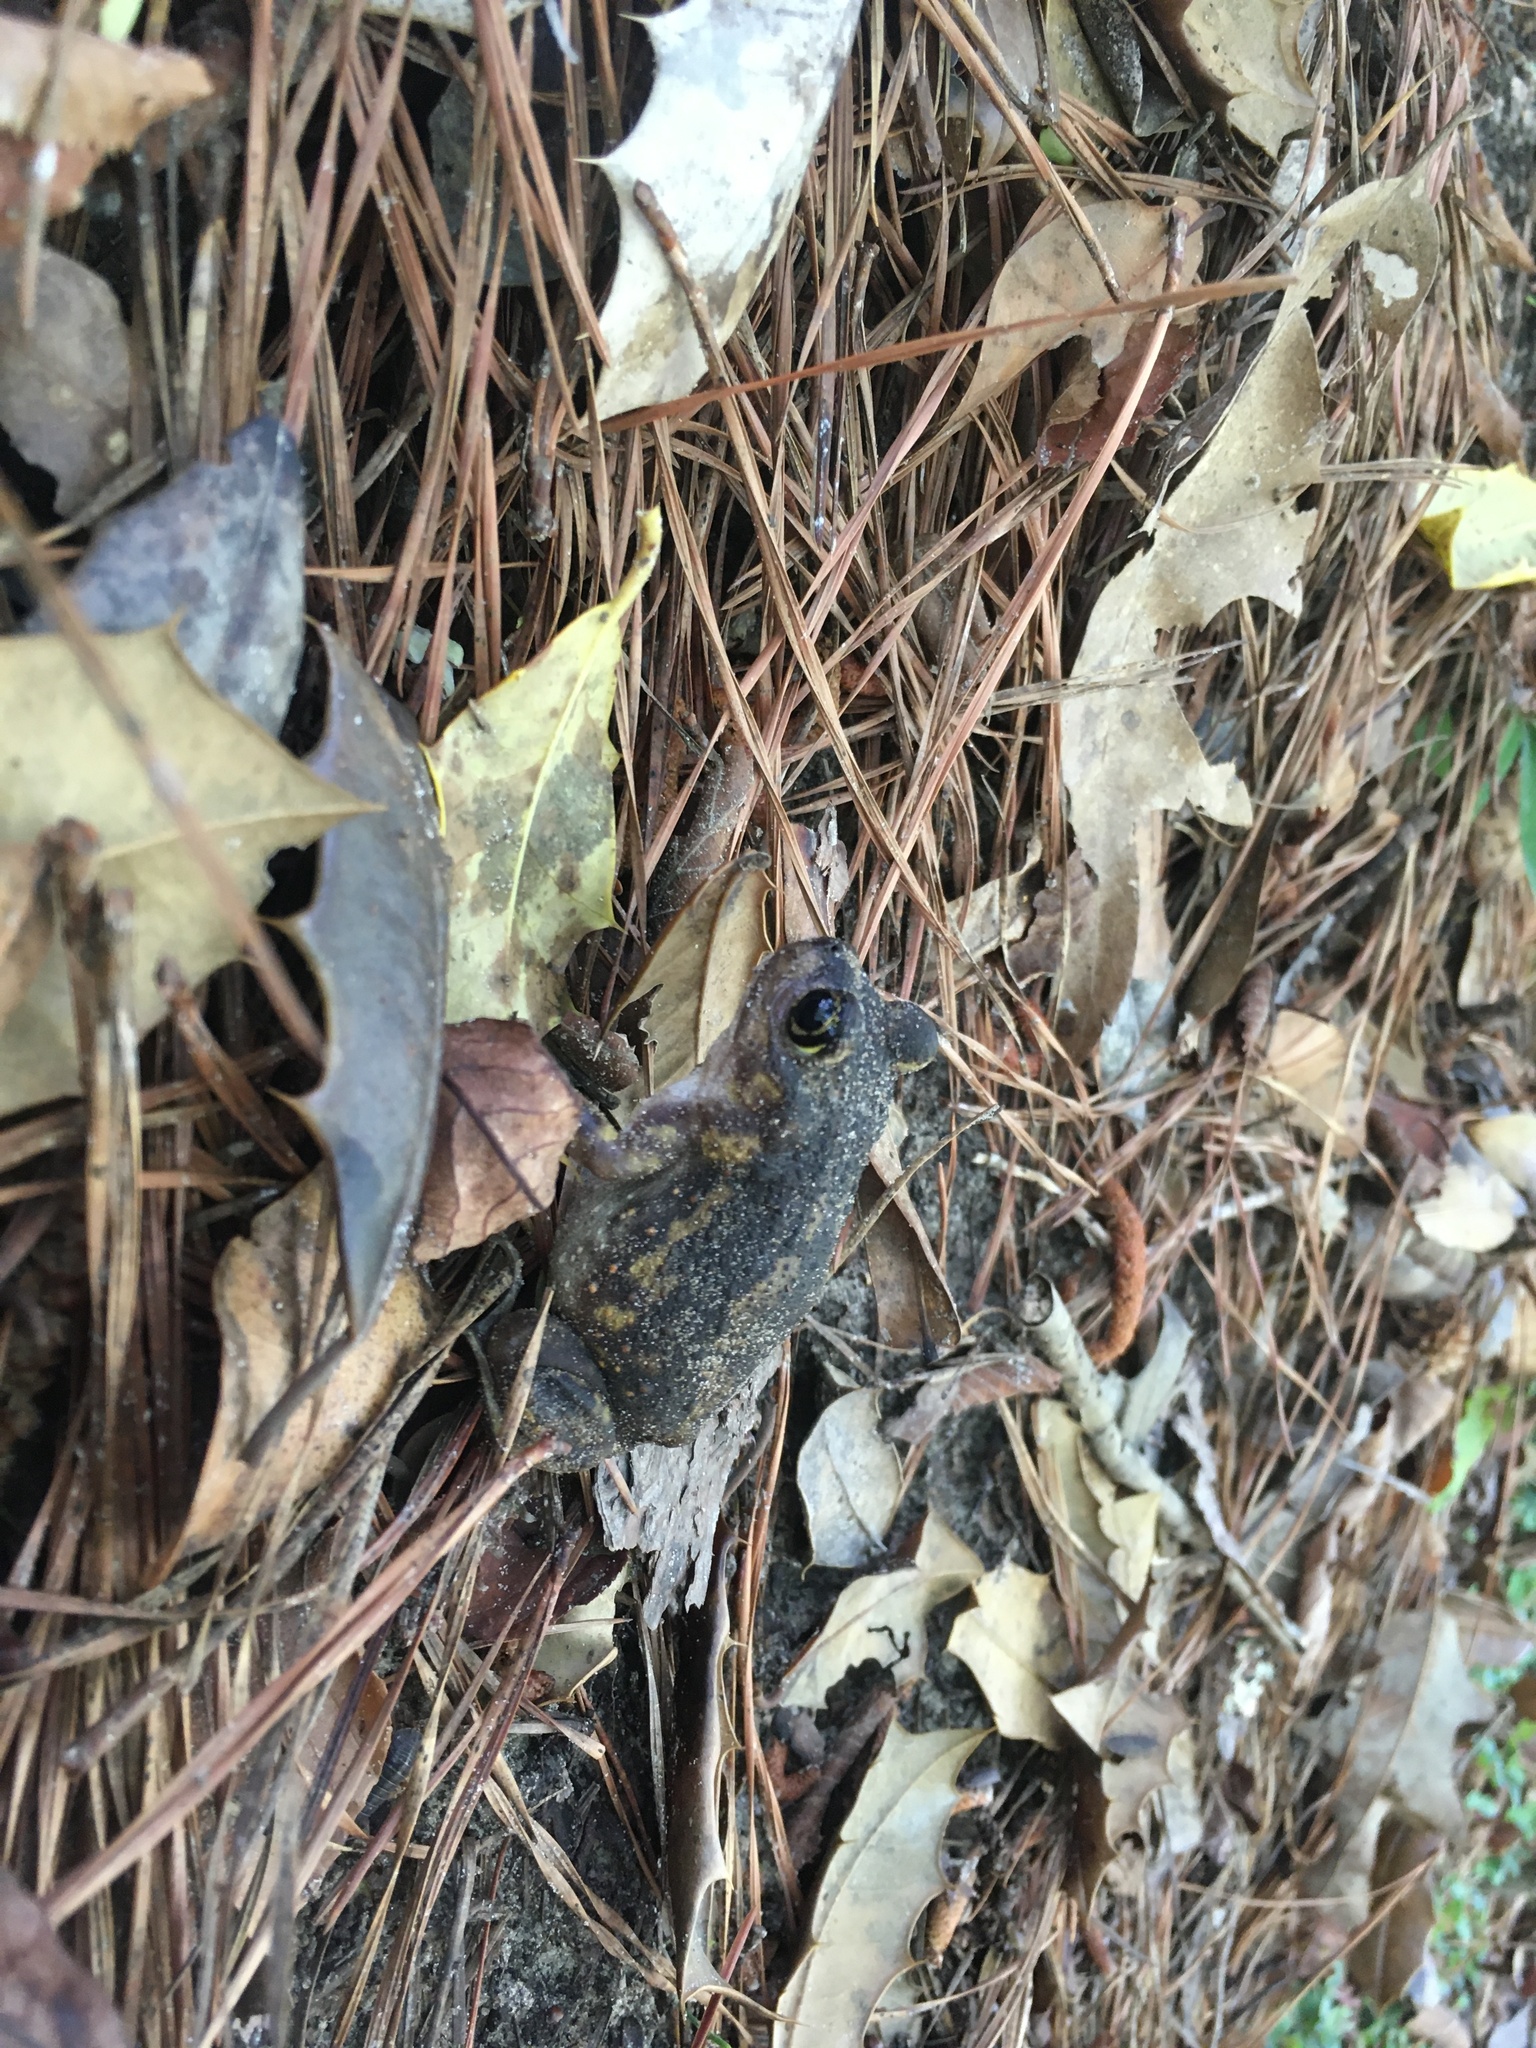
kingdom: Animalia
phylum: Chordata
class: Amphibia
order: Anura
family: Scaphiopodidae
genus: Scaphiopus
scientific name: Scaphiopus holbrookii
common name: Eastern spadefoot toad
